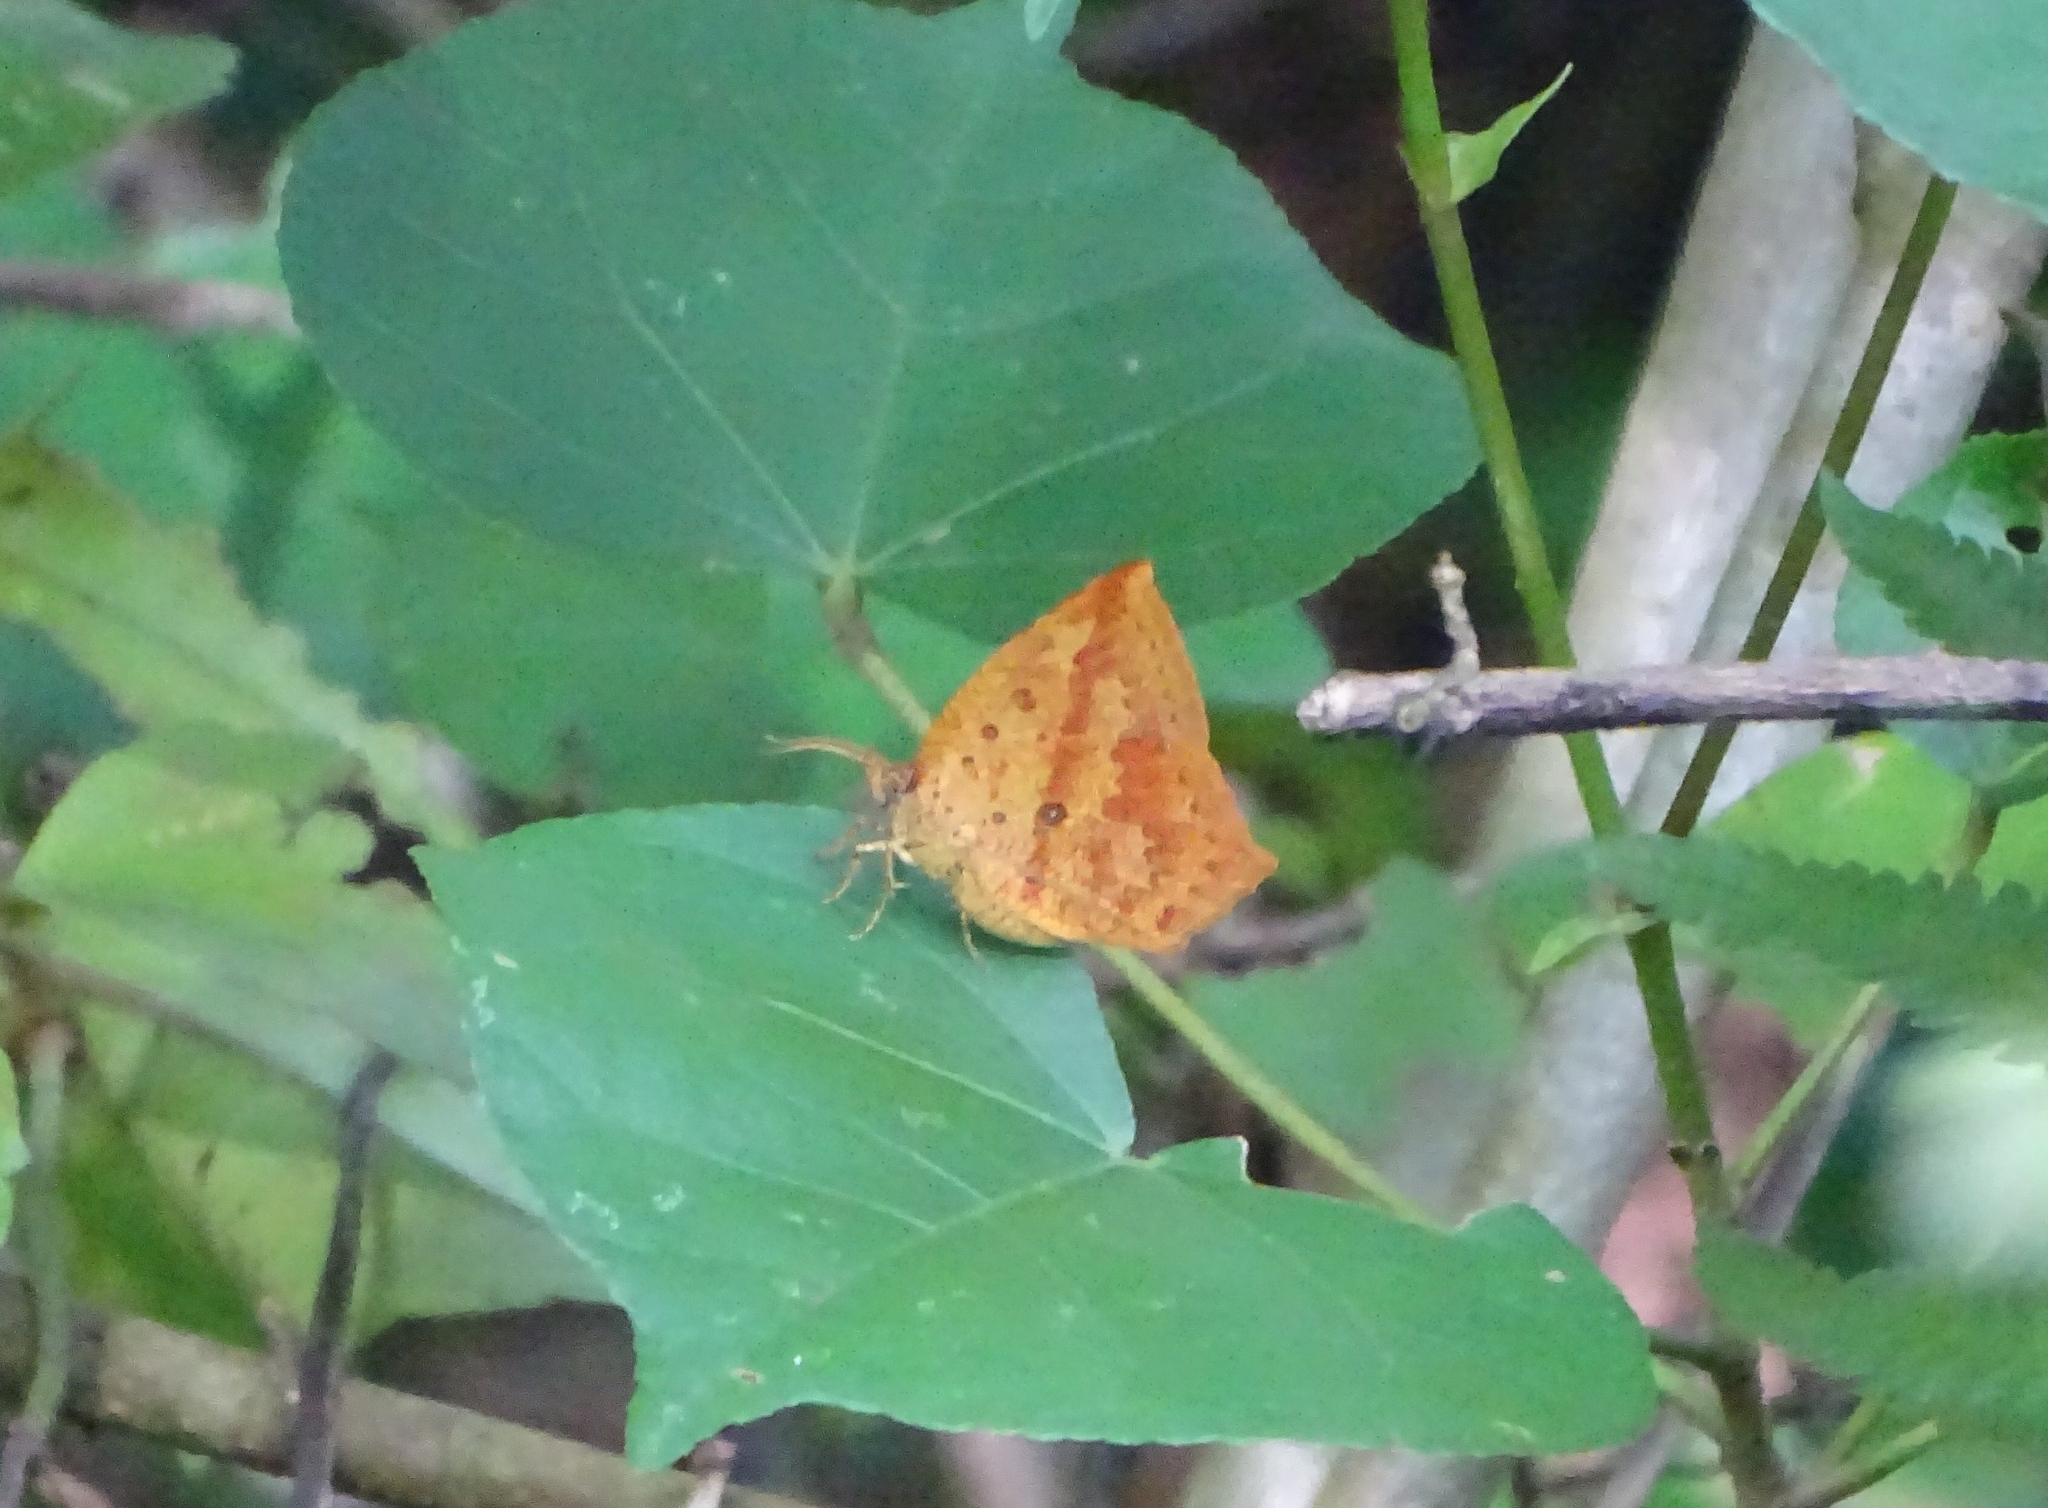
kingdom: Animalia
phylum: Arthropoda
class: Insecta
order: Lepidoptera
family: Callidulidae
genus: Tetragonus
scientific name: Tetragonus catamitus
